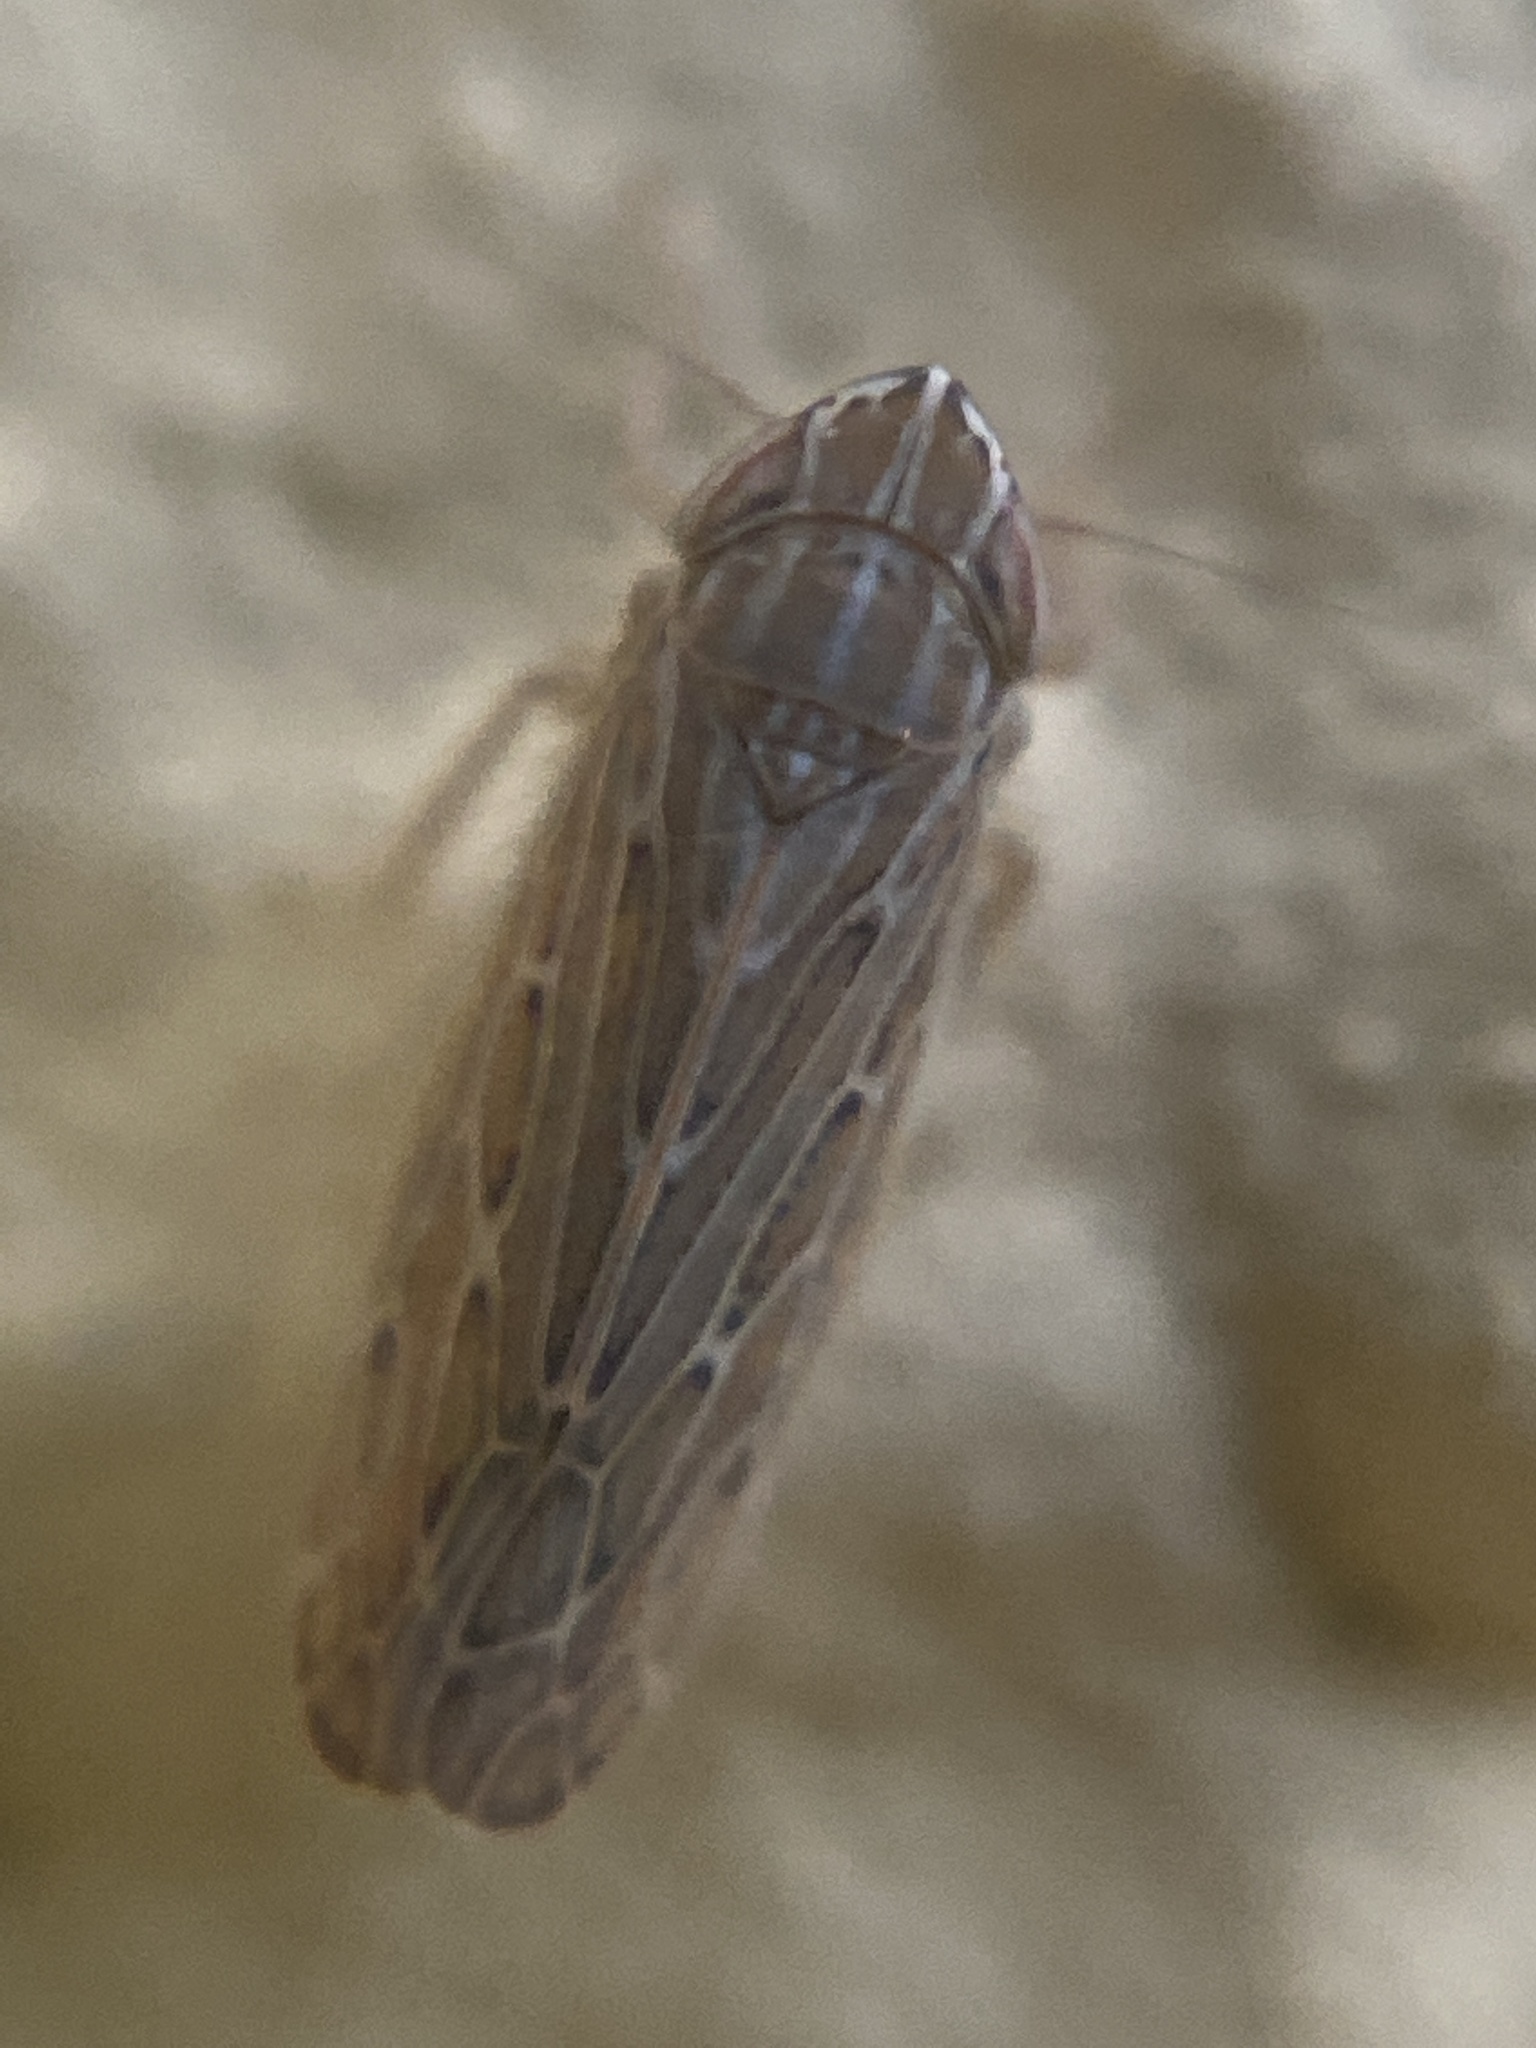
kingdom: Animalia
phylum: Arthropoda
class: Insecta
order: Hemiptera
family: Cicadellidae
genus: Arocephalus
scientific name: Arocephalus longiceps
